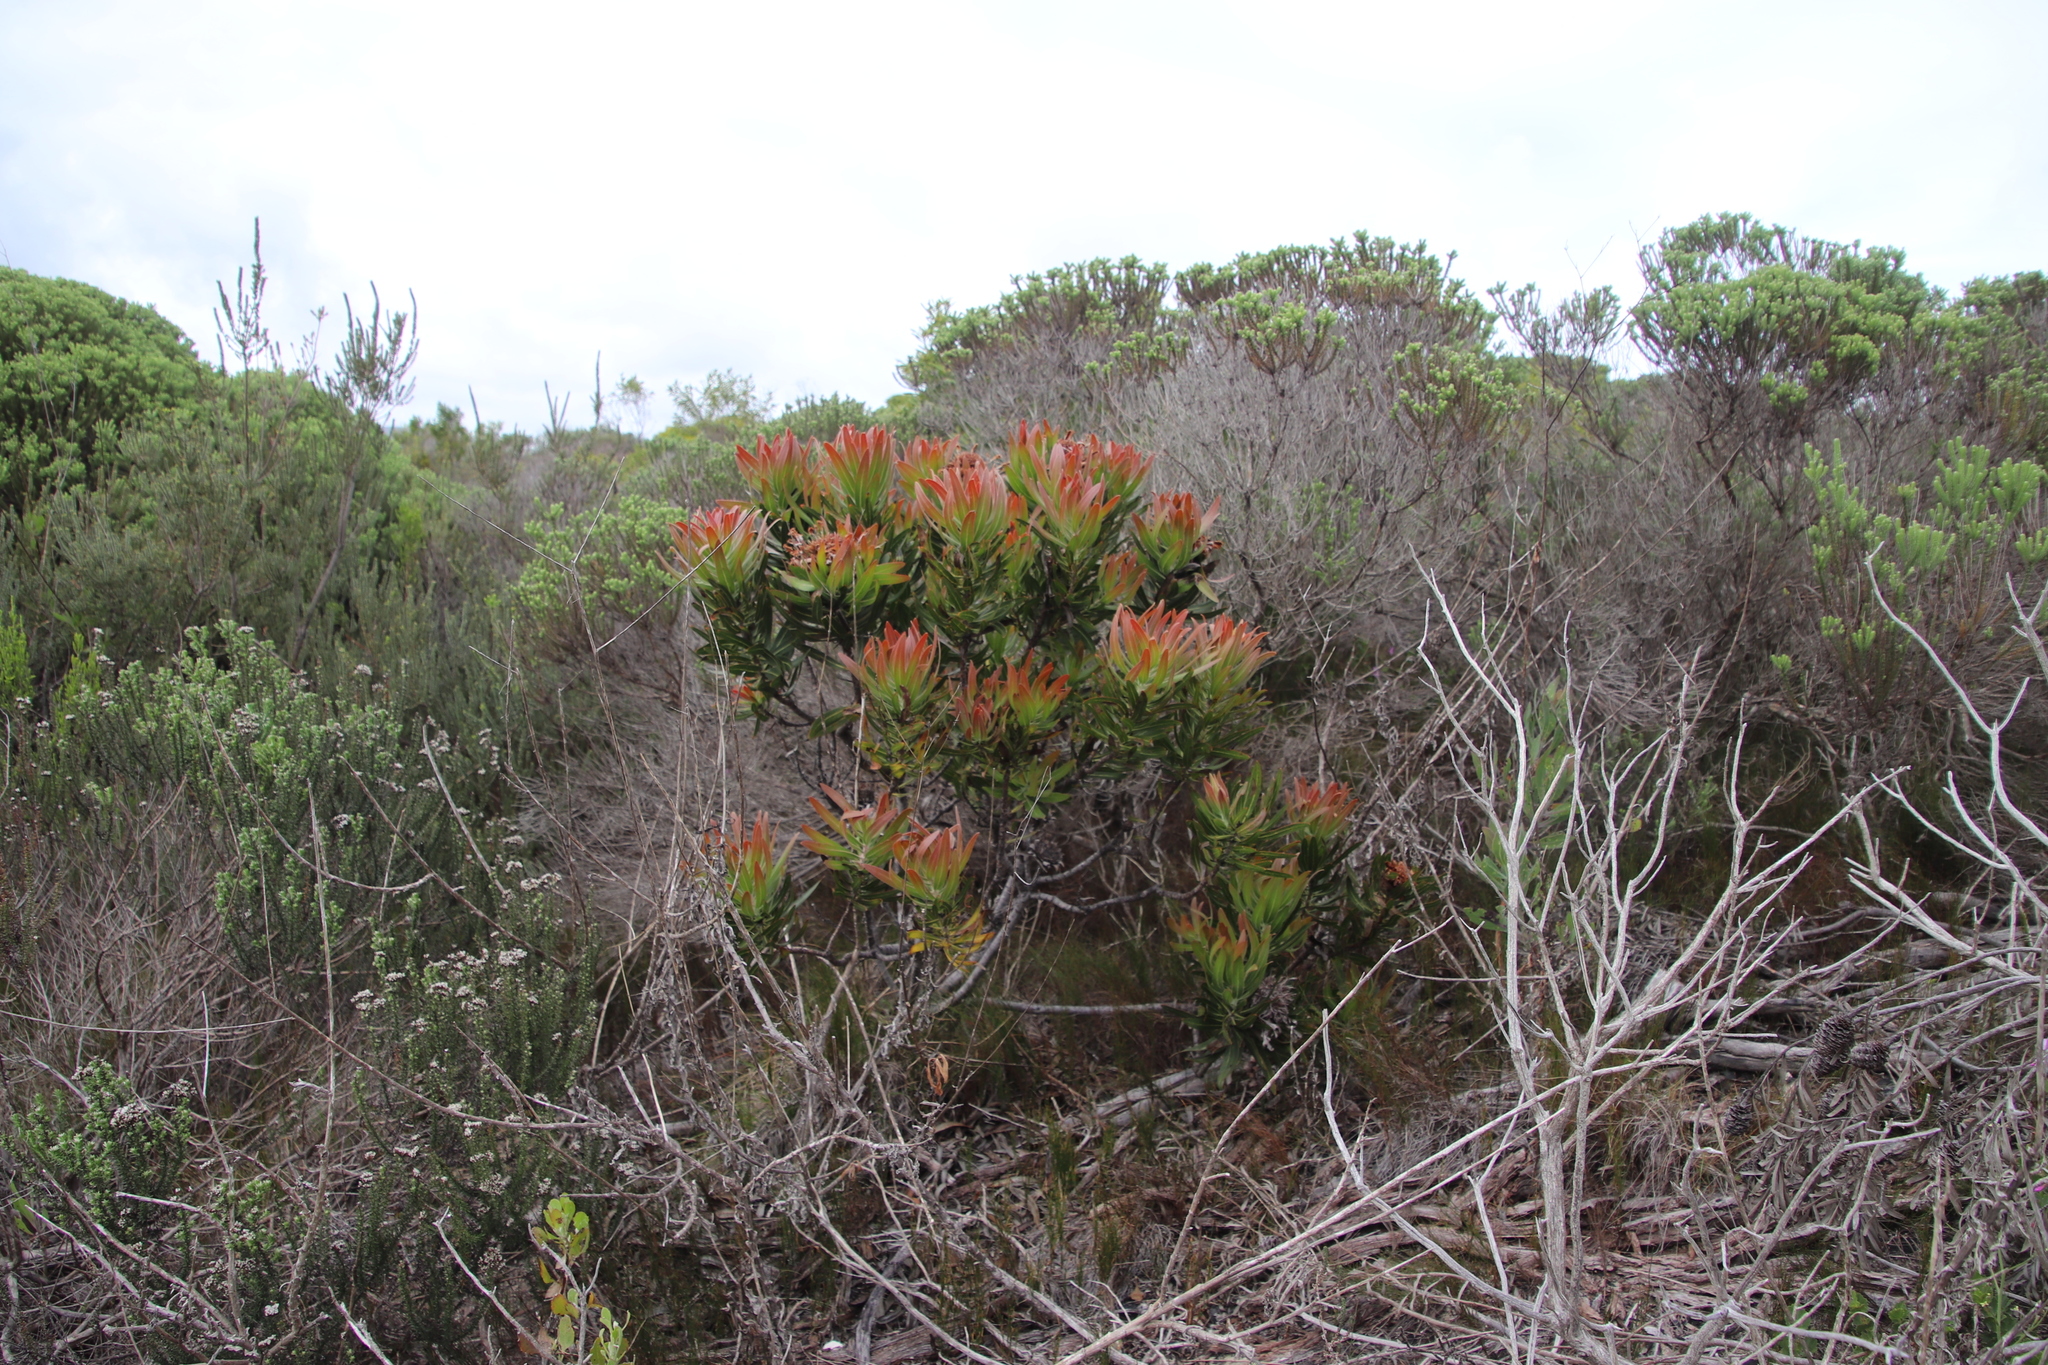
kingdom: Plantae
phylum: Tracheophyta
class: Magnoliopsida
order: Proteales
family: Proteaceae
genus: Protea
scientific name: Protea lepidocarpodendron
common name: Black-bearded protea
